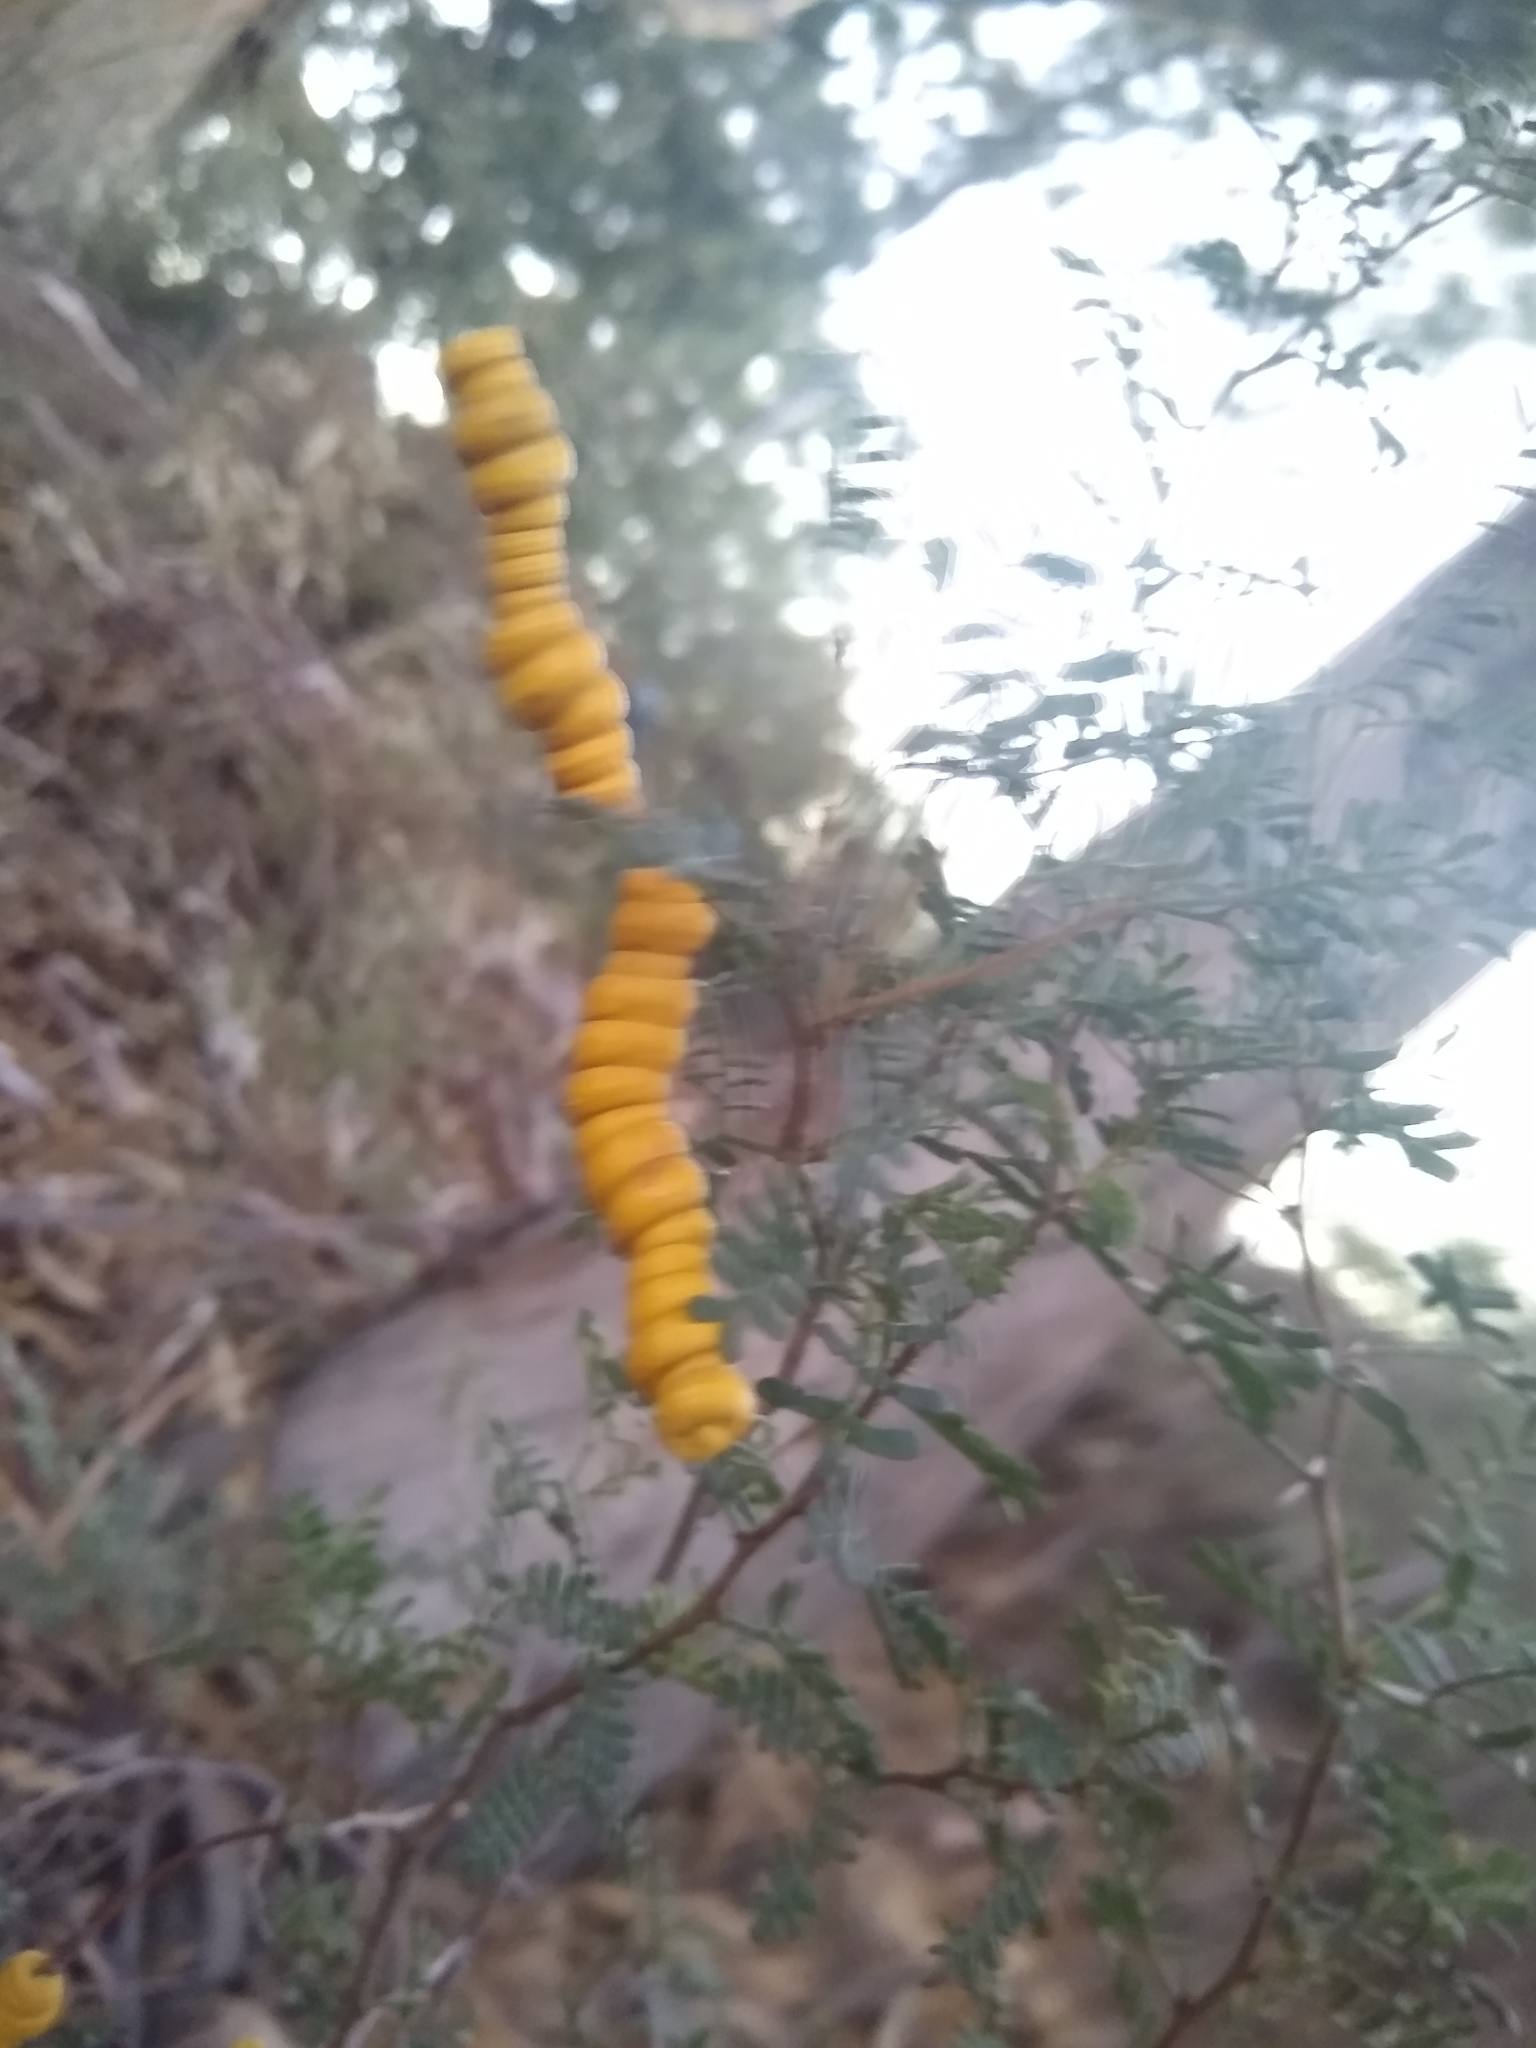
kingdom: Plantae
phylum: Tracheophyta
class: Magnoliopsida
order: Fabales
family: Fabaceae
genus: Prosopis
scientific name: Prosopis strombulifera
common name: Creeping mesquite
